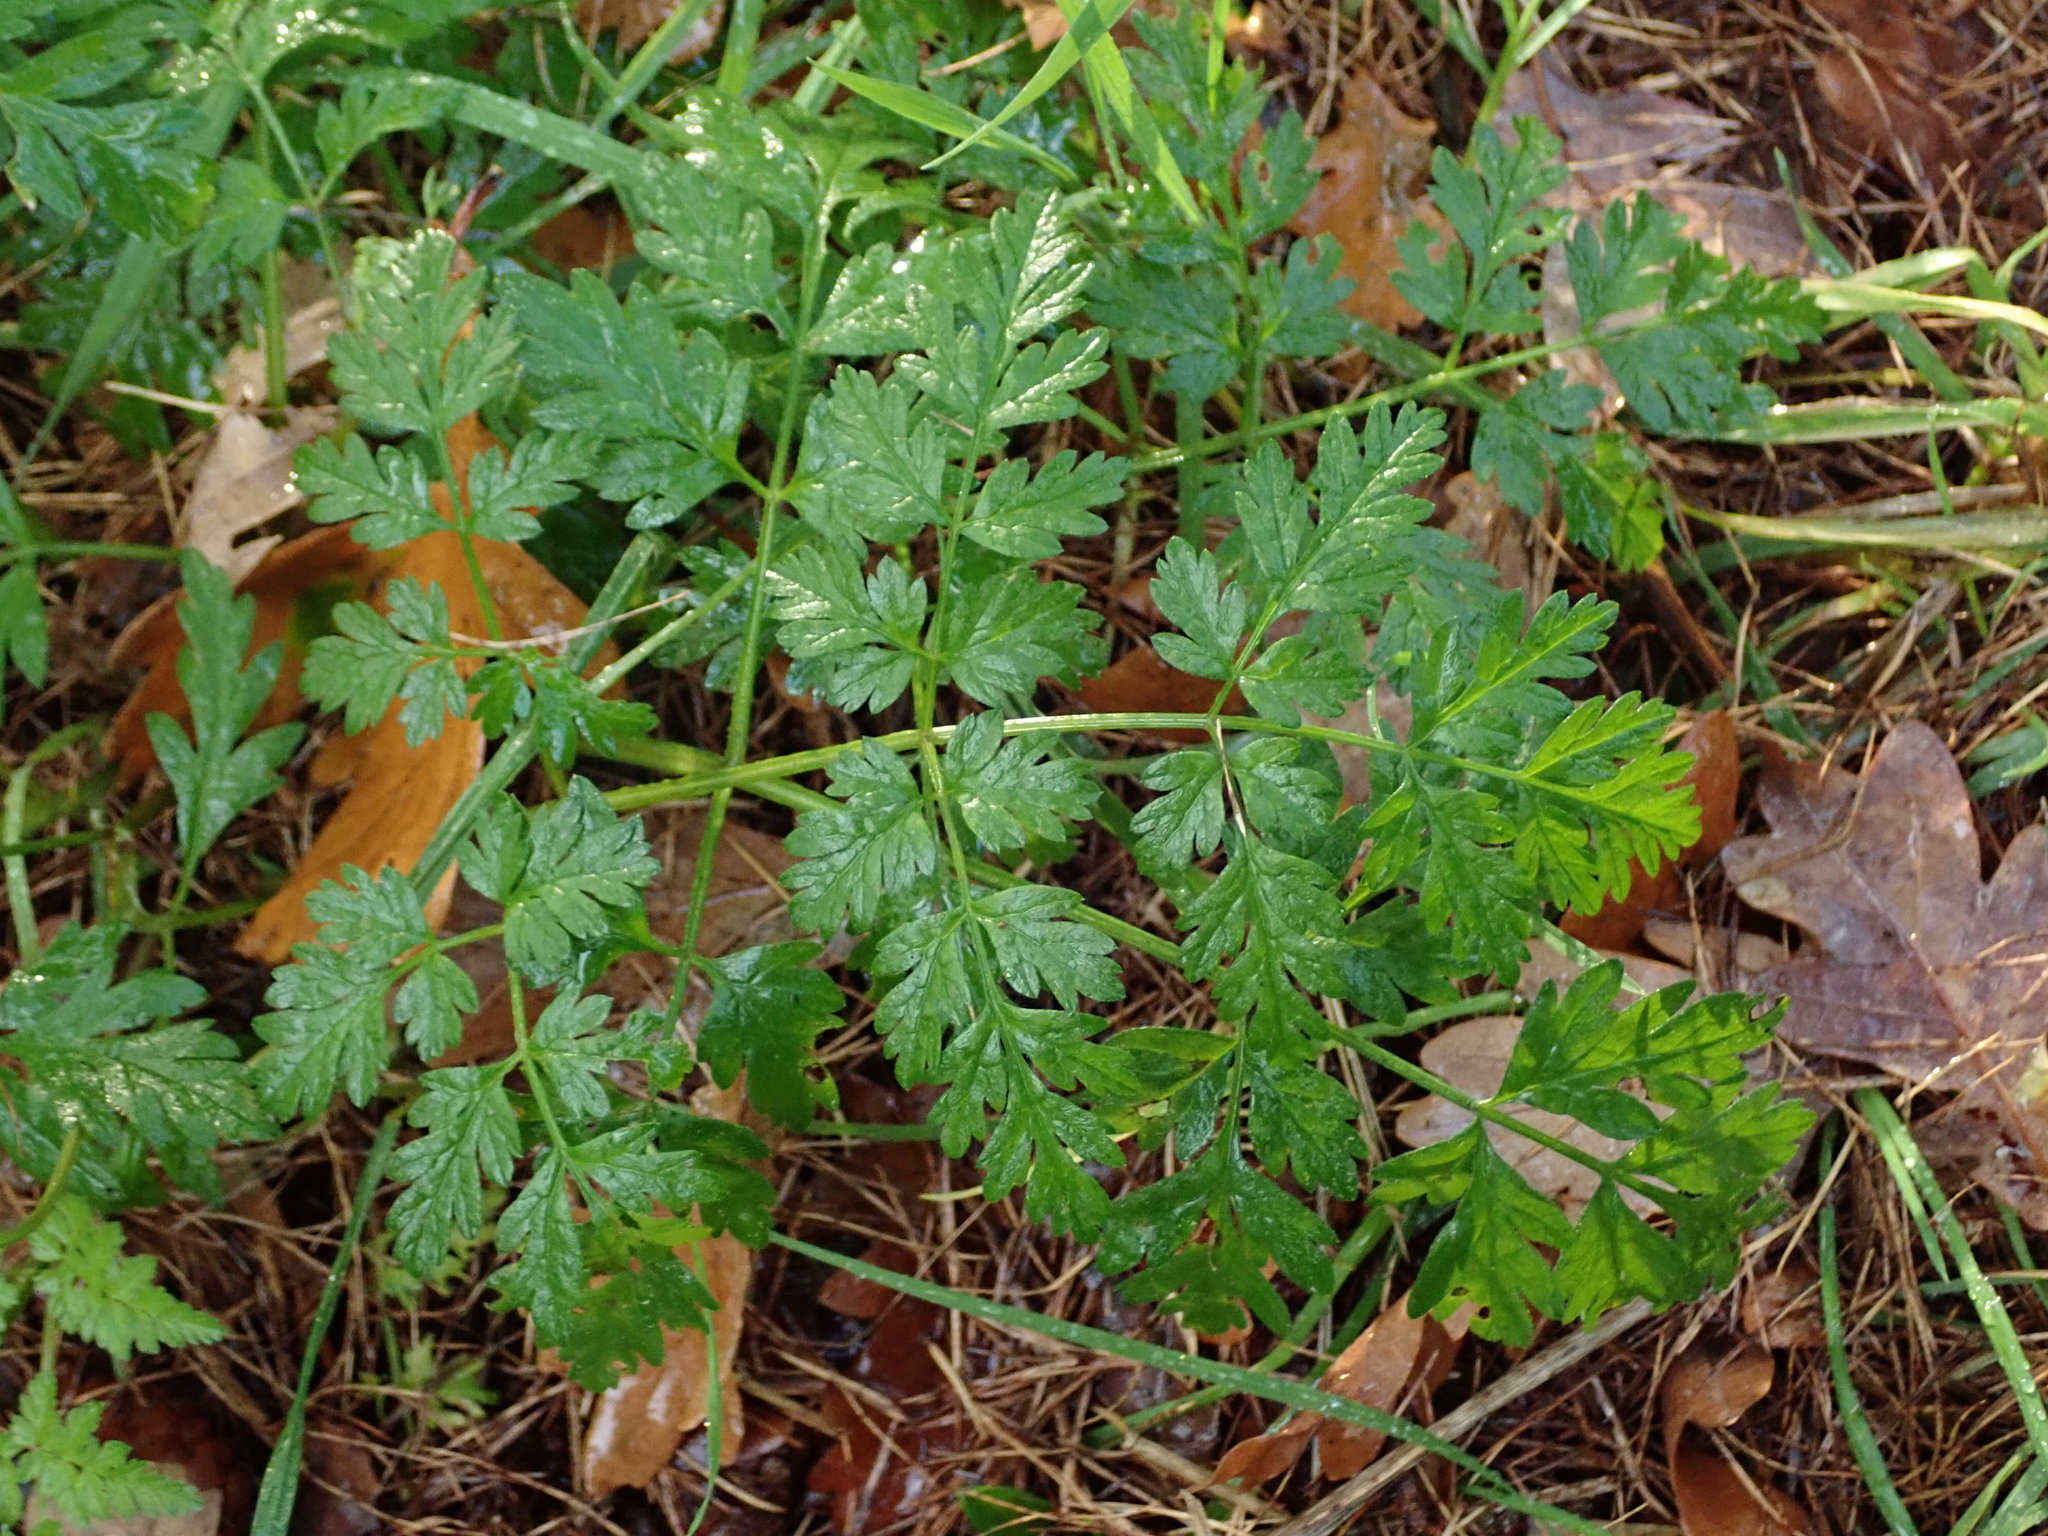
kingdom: Plantae
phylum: Tracheophyta
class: Magnoliopsida
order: Apiales
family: Apiaceae
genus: Anthriscus
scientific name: Anthriscus sylvestris
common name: Cow parsley
